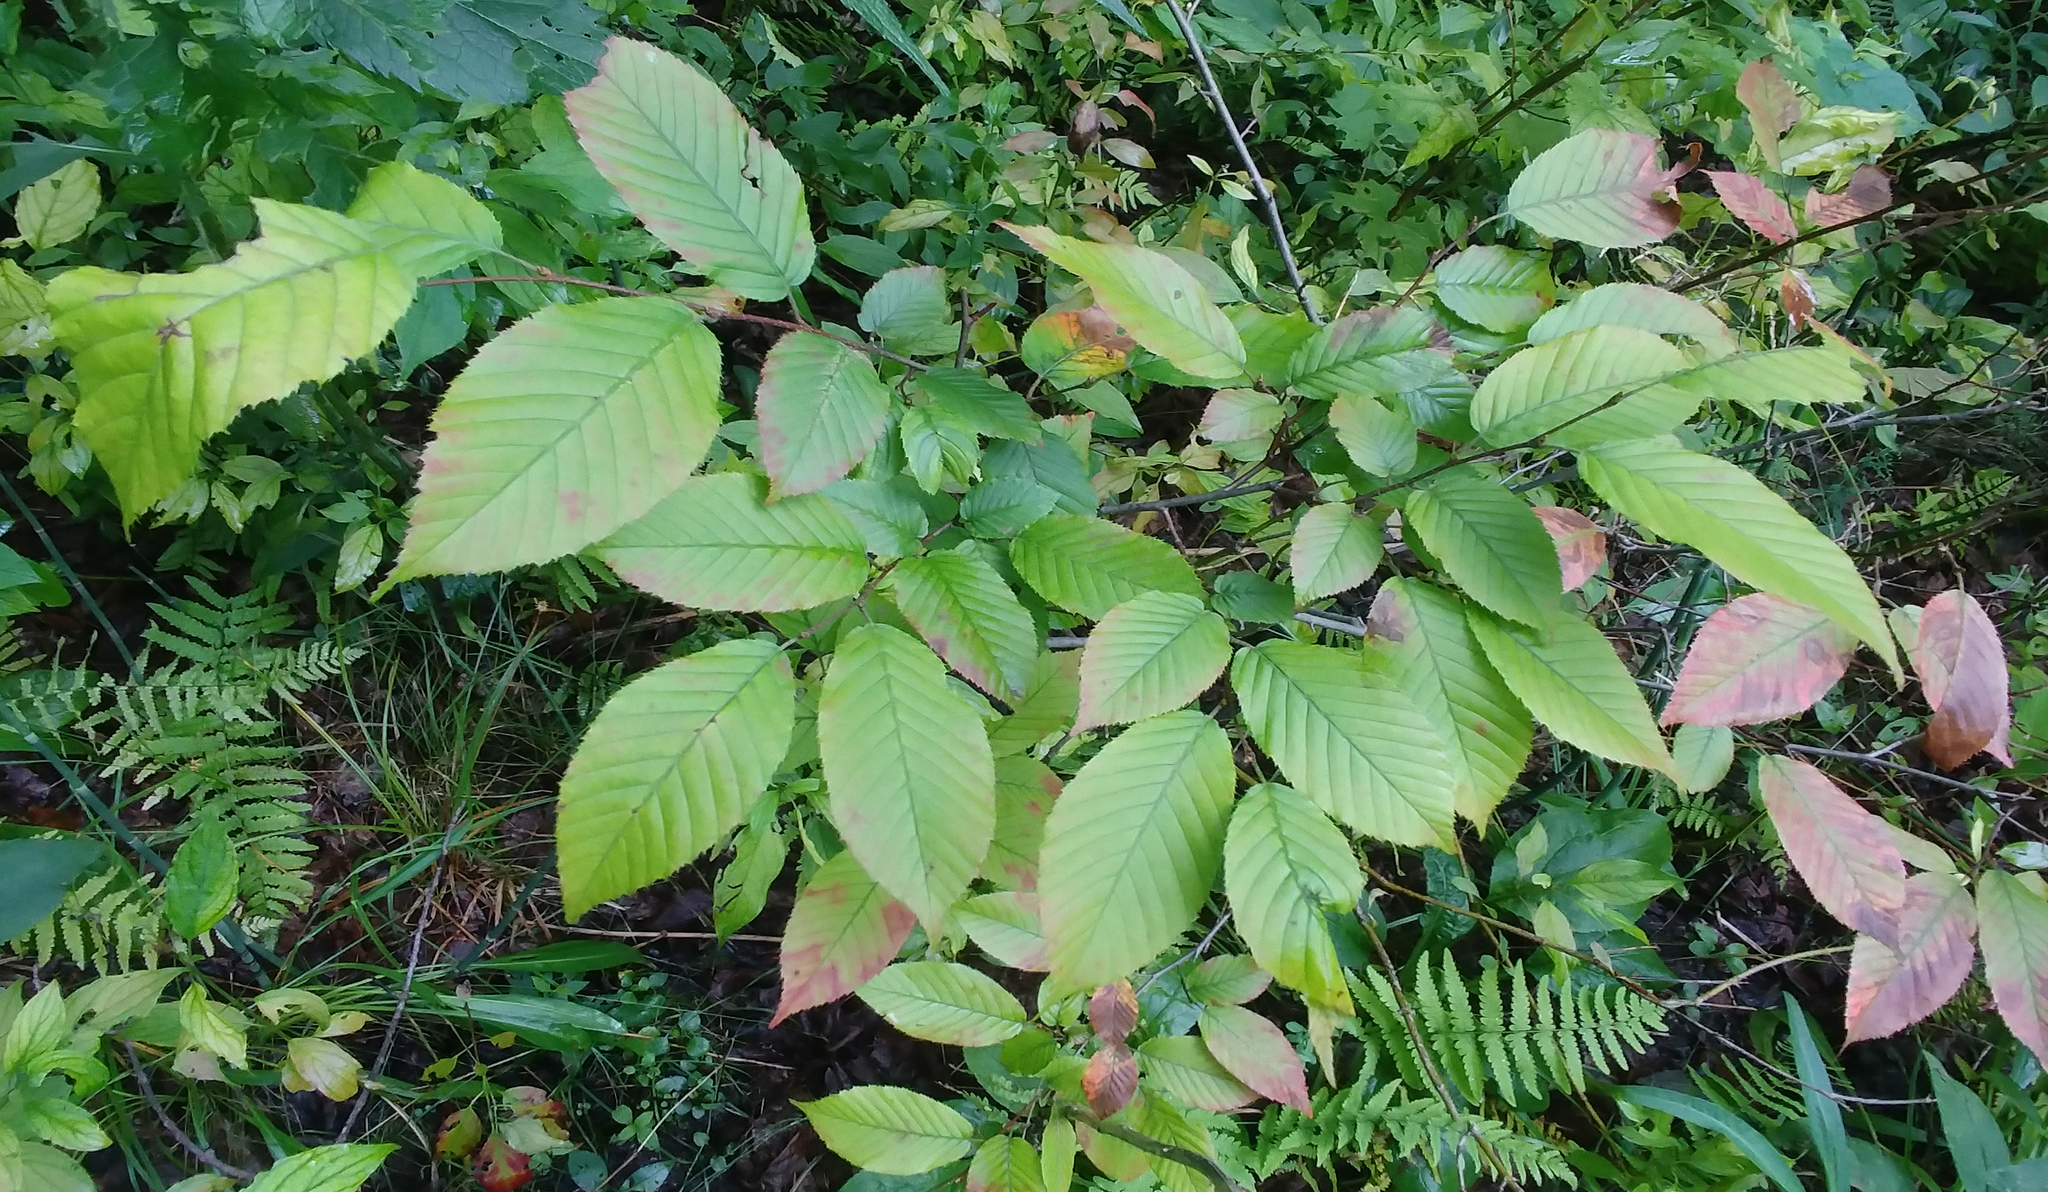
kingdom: Plantae
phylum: Tracheophyta
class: Magnoliopsida
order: Fagales
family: Betulaceae
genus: Carpinus
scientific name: Carpinus caroliniana
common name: American hornbeam
